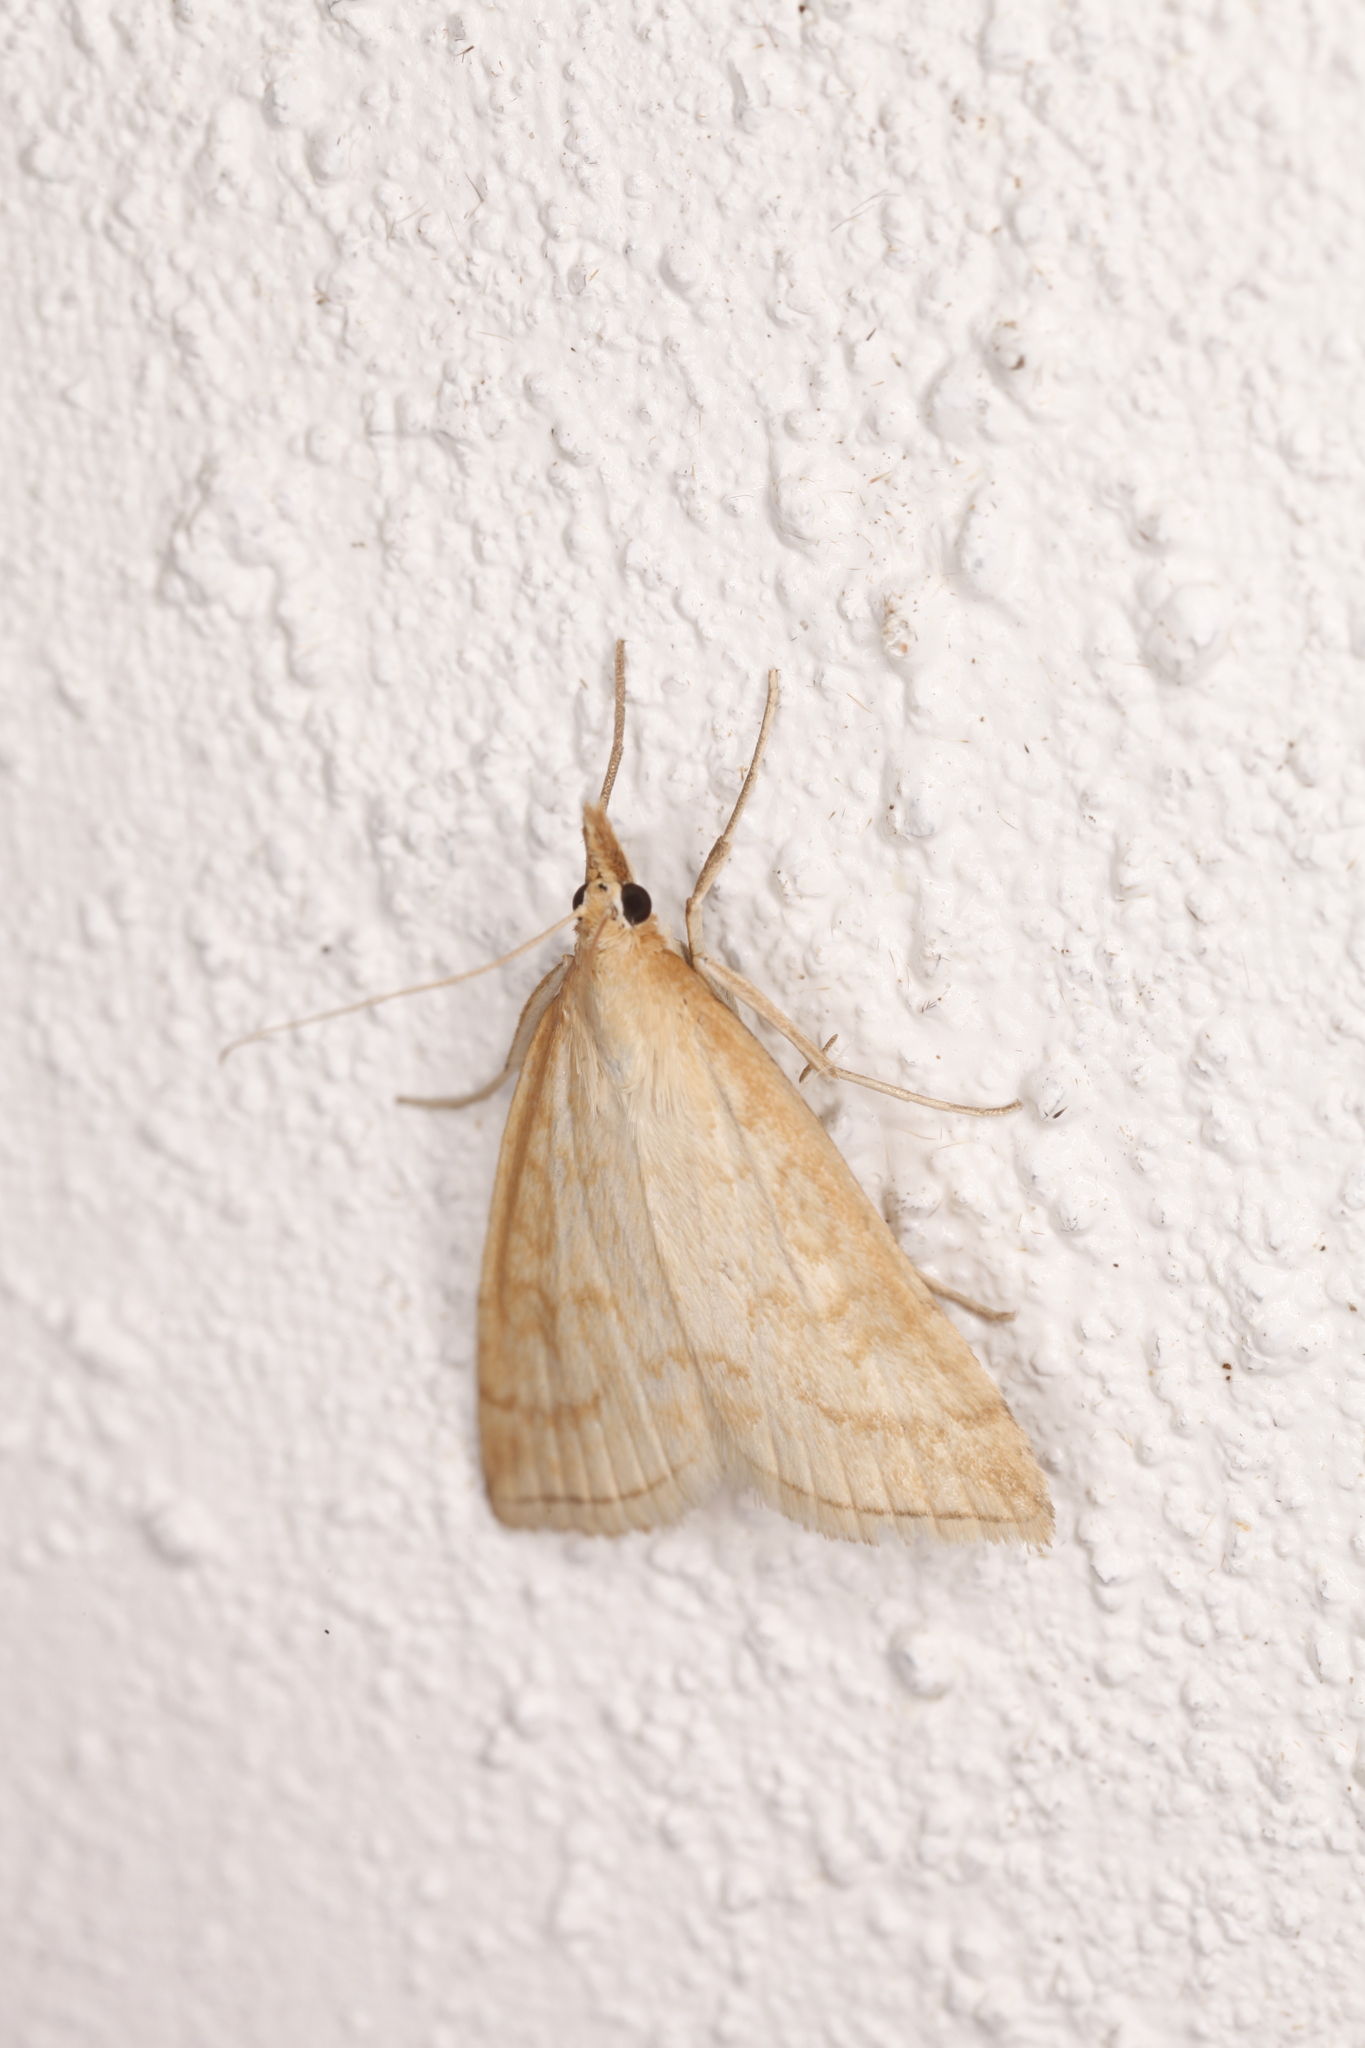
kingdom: Animalia
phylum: Arthropoda
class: Insecta
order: Lepidoptera
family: Crambidae
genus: Udea
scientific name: Udea lutealis
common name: Pale straw pearl
